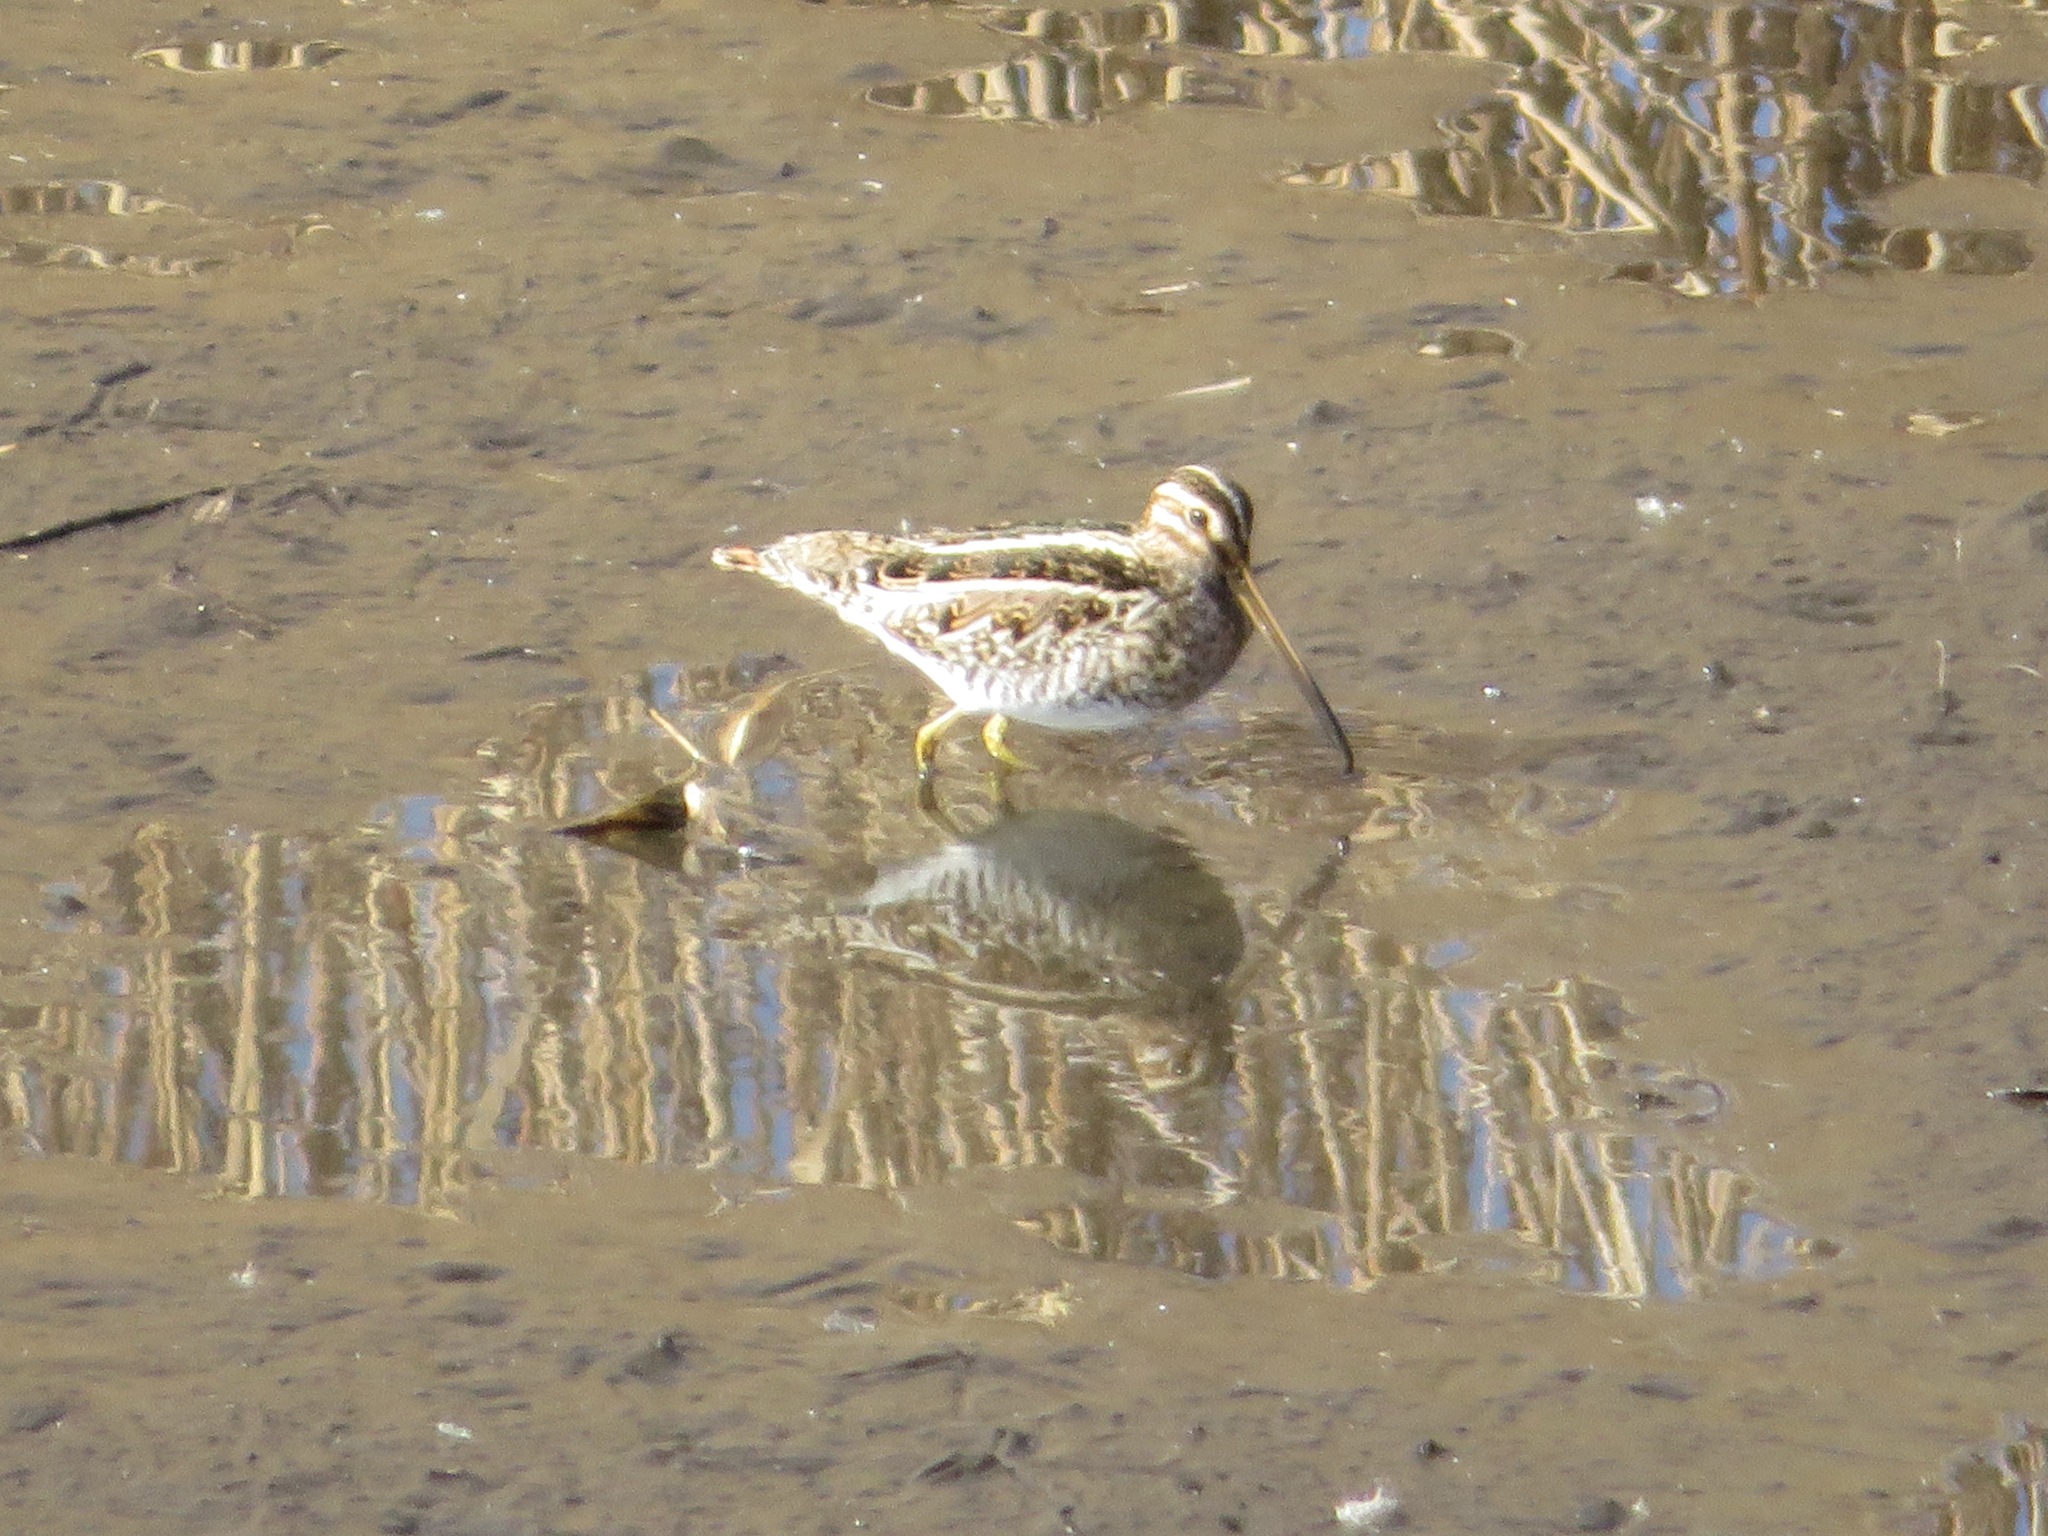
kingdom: Animalia
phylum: Chordata
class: Aves
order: Charadriiformes
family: Scolopacidae
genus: Gallinago
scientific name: Gallinago gallinago
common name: Common snipe
